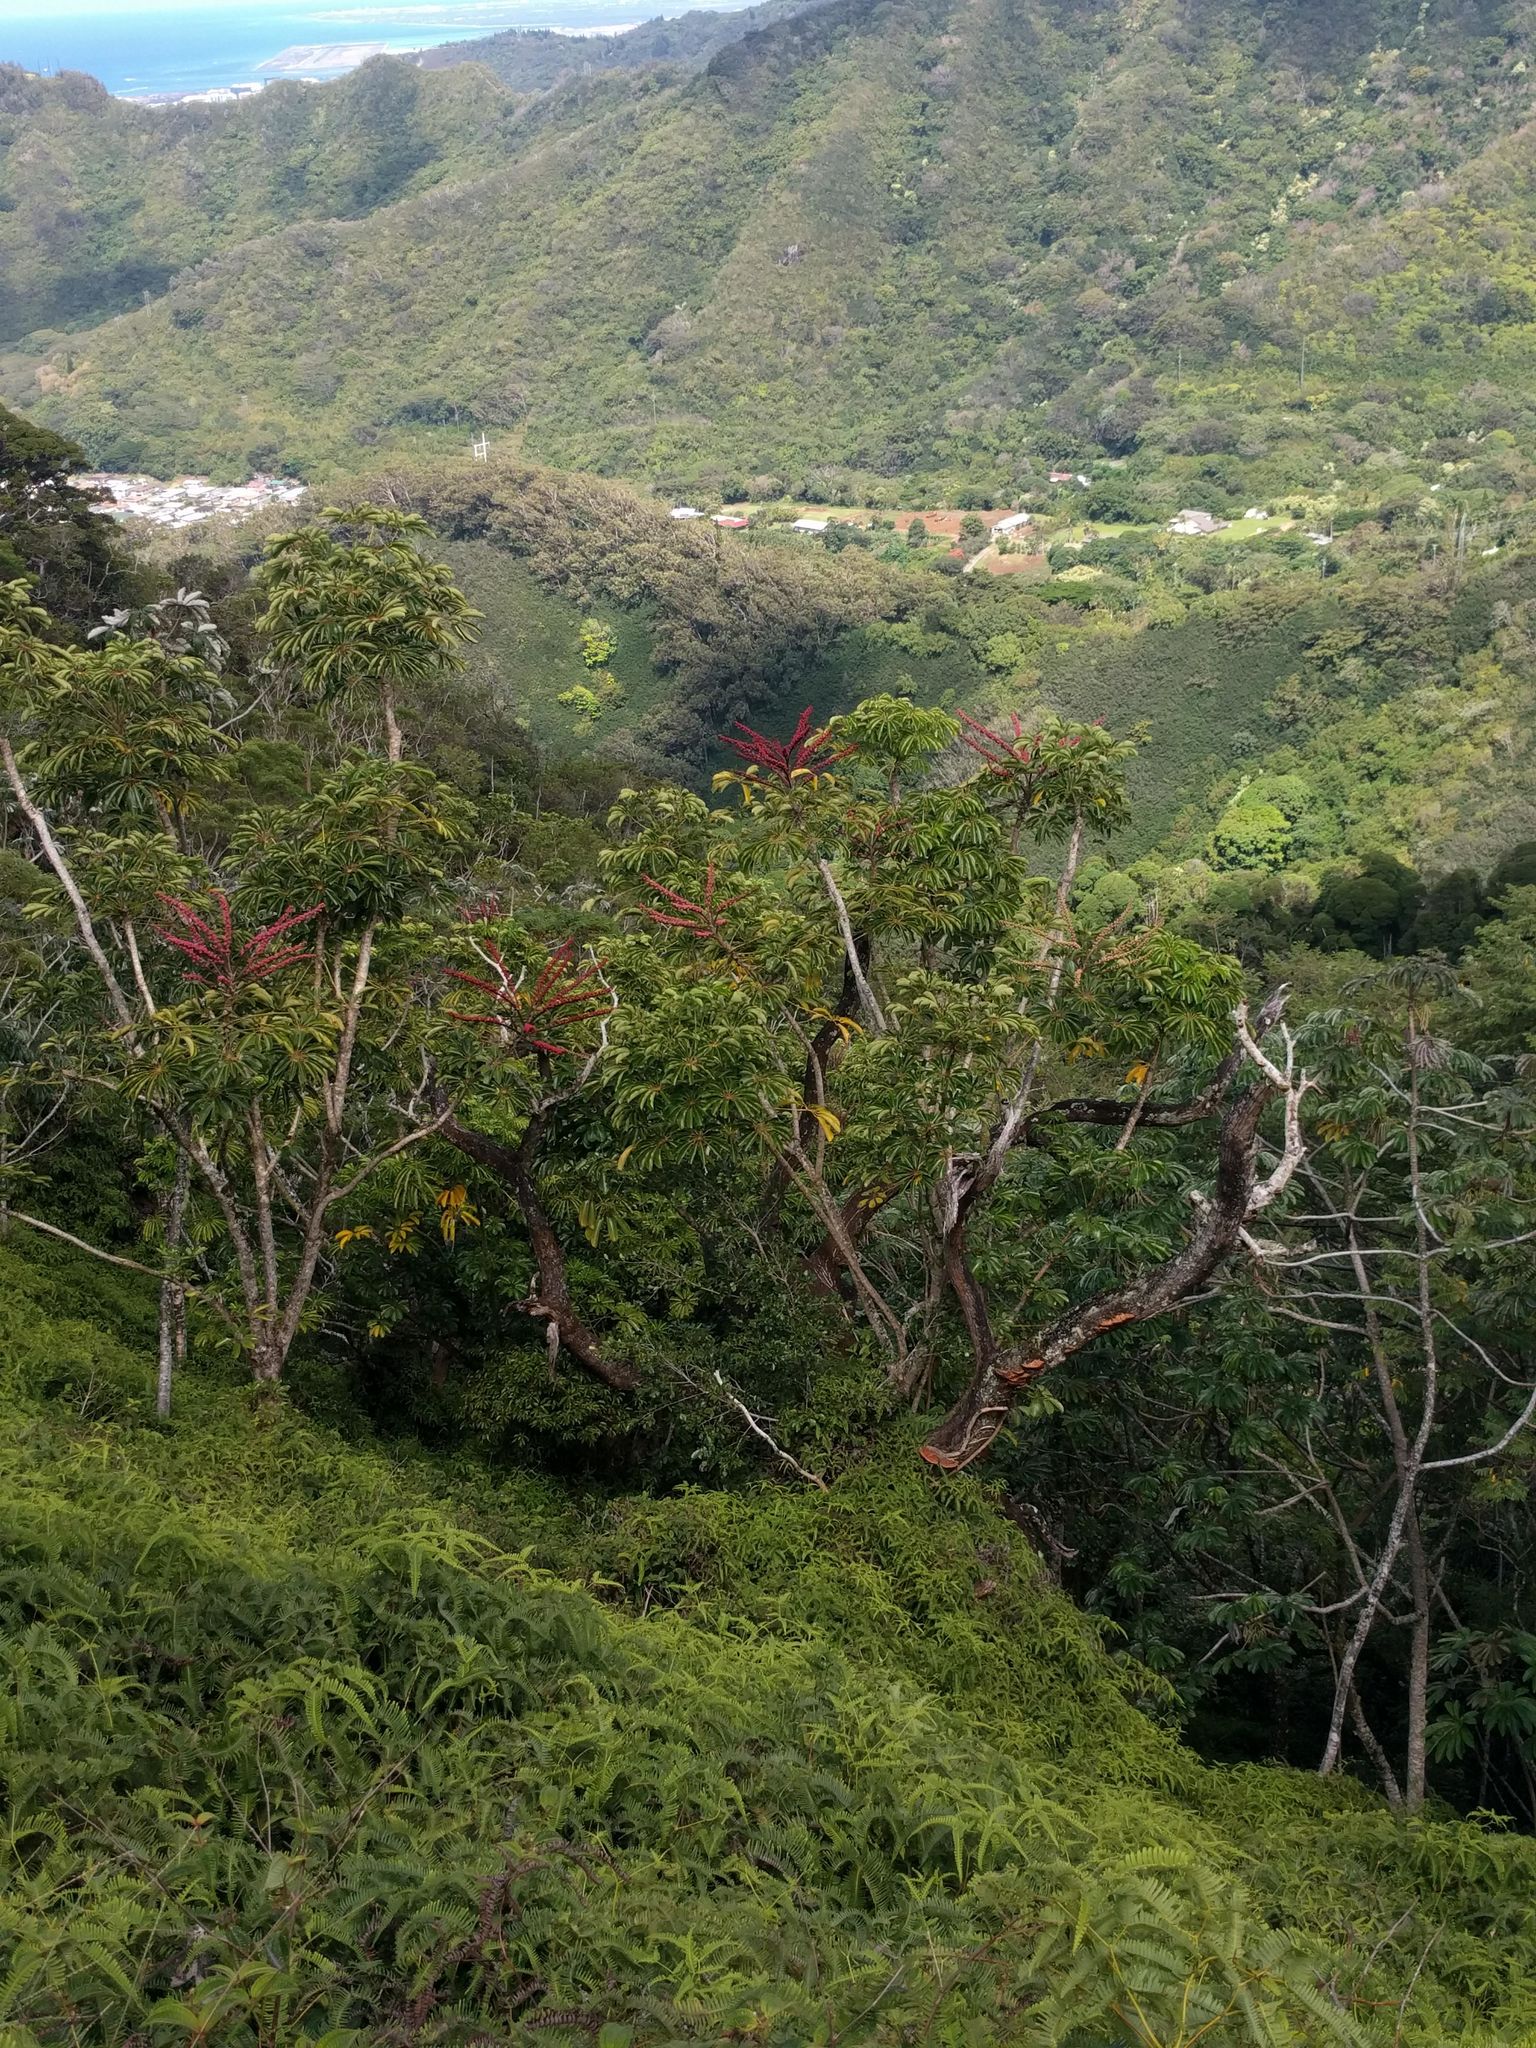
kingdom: Plantae
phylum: Tracheophyta
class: Magnoliopsida
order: Apiales
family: Araliaceae
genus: Heptapleurum
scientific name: Heptapleurum actinophyllum
